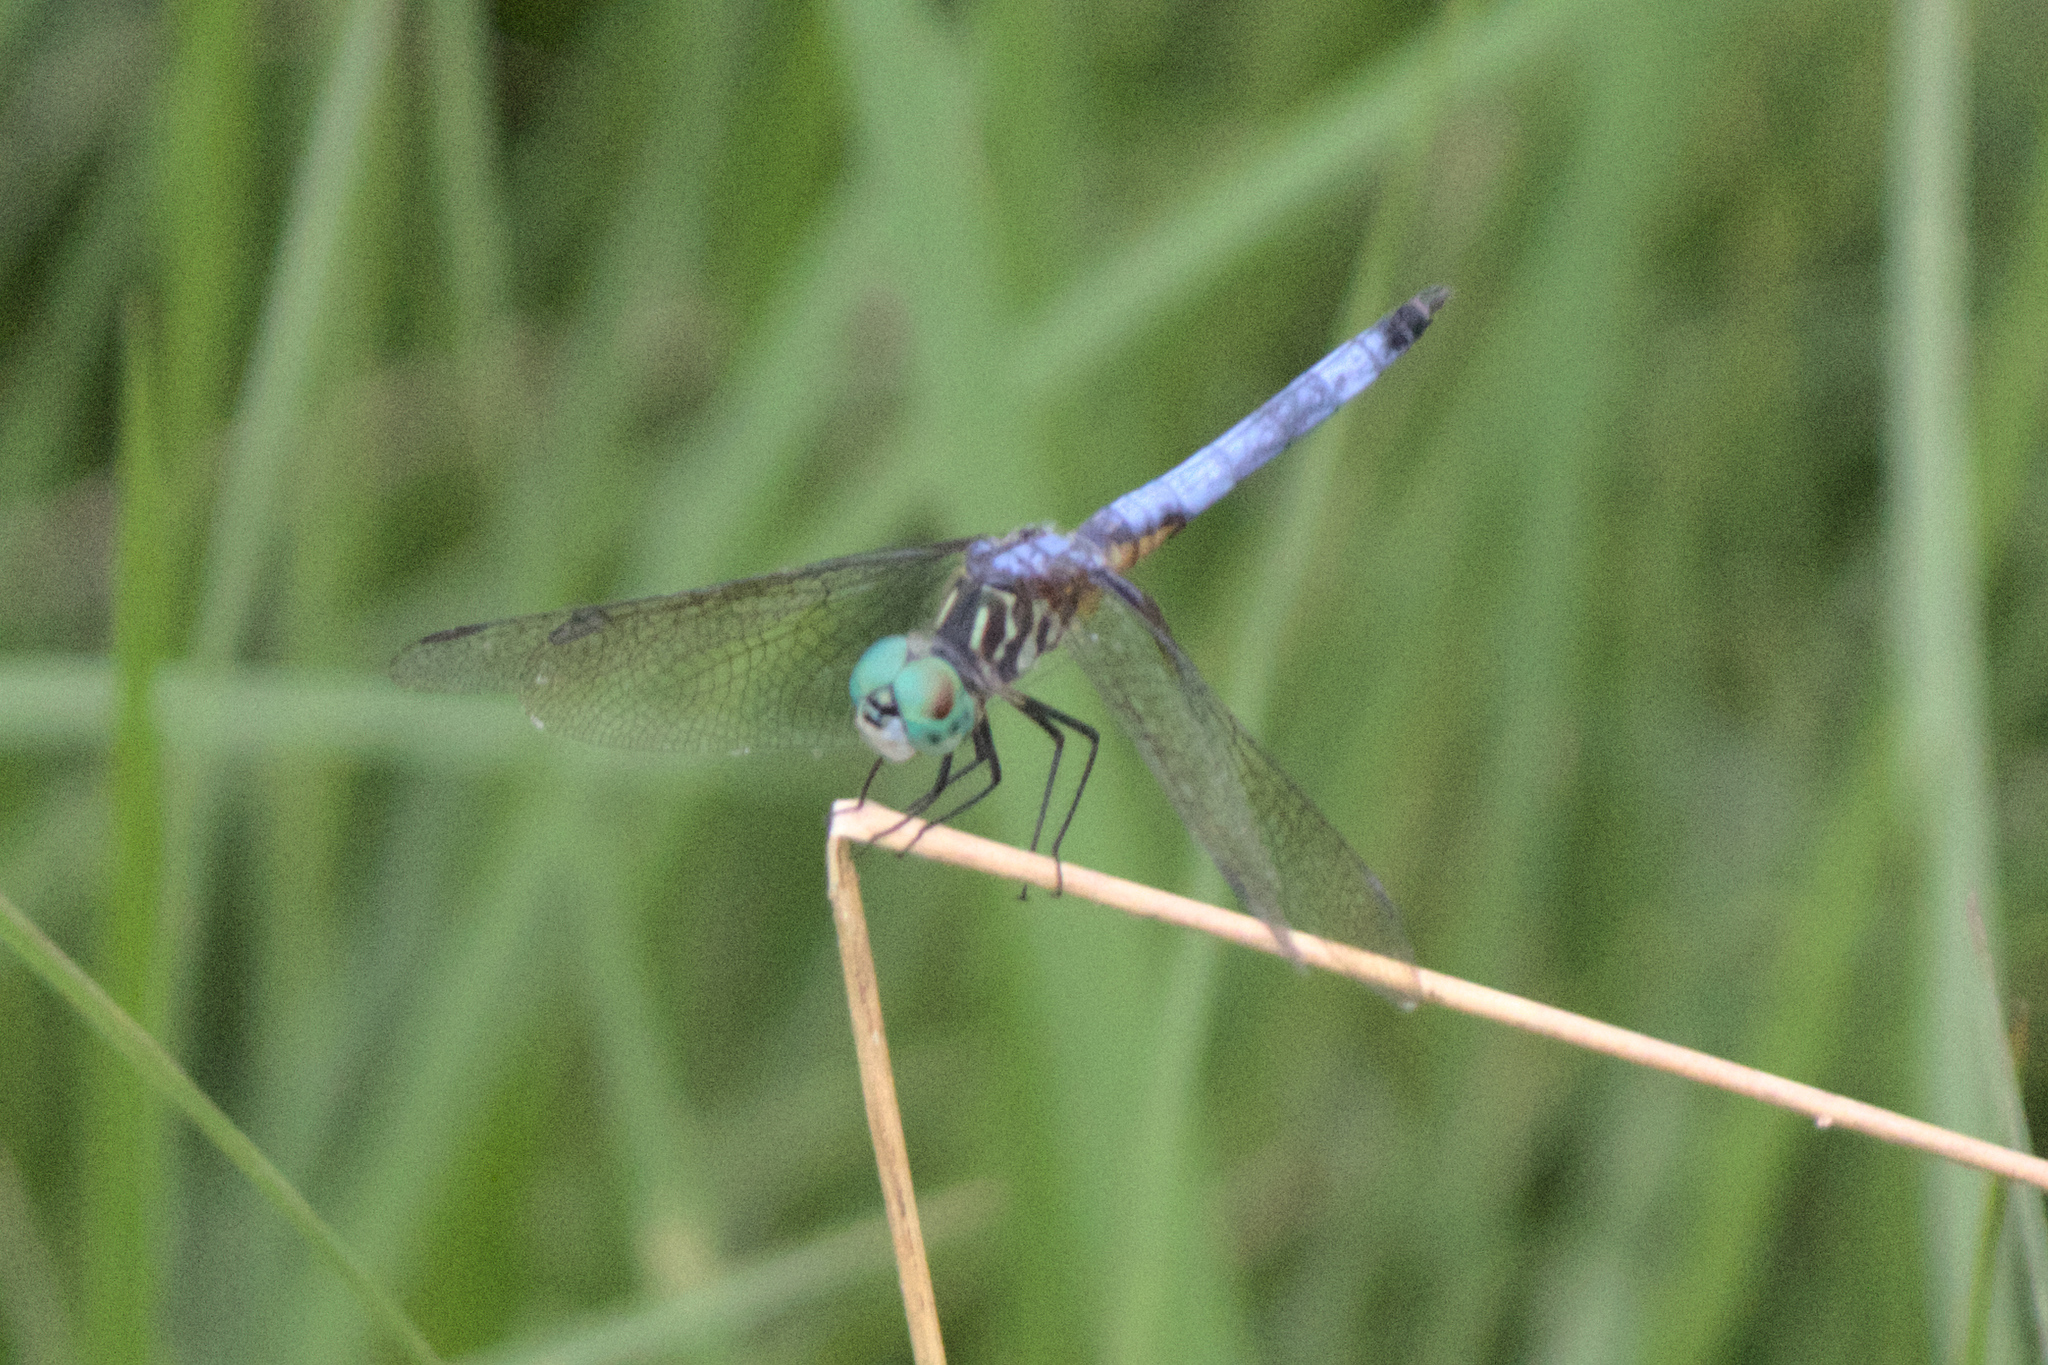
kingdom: Animalia
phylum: Arthropoda
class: Insecta
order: Odonata
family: Libellulidae
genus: Pachydiplax
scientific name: Pachydiplax longipennis
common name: Blue dasher
